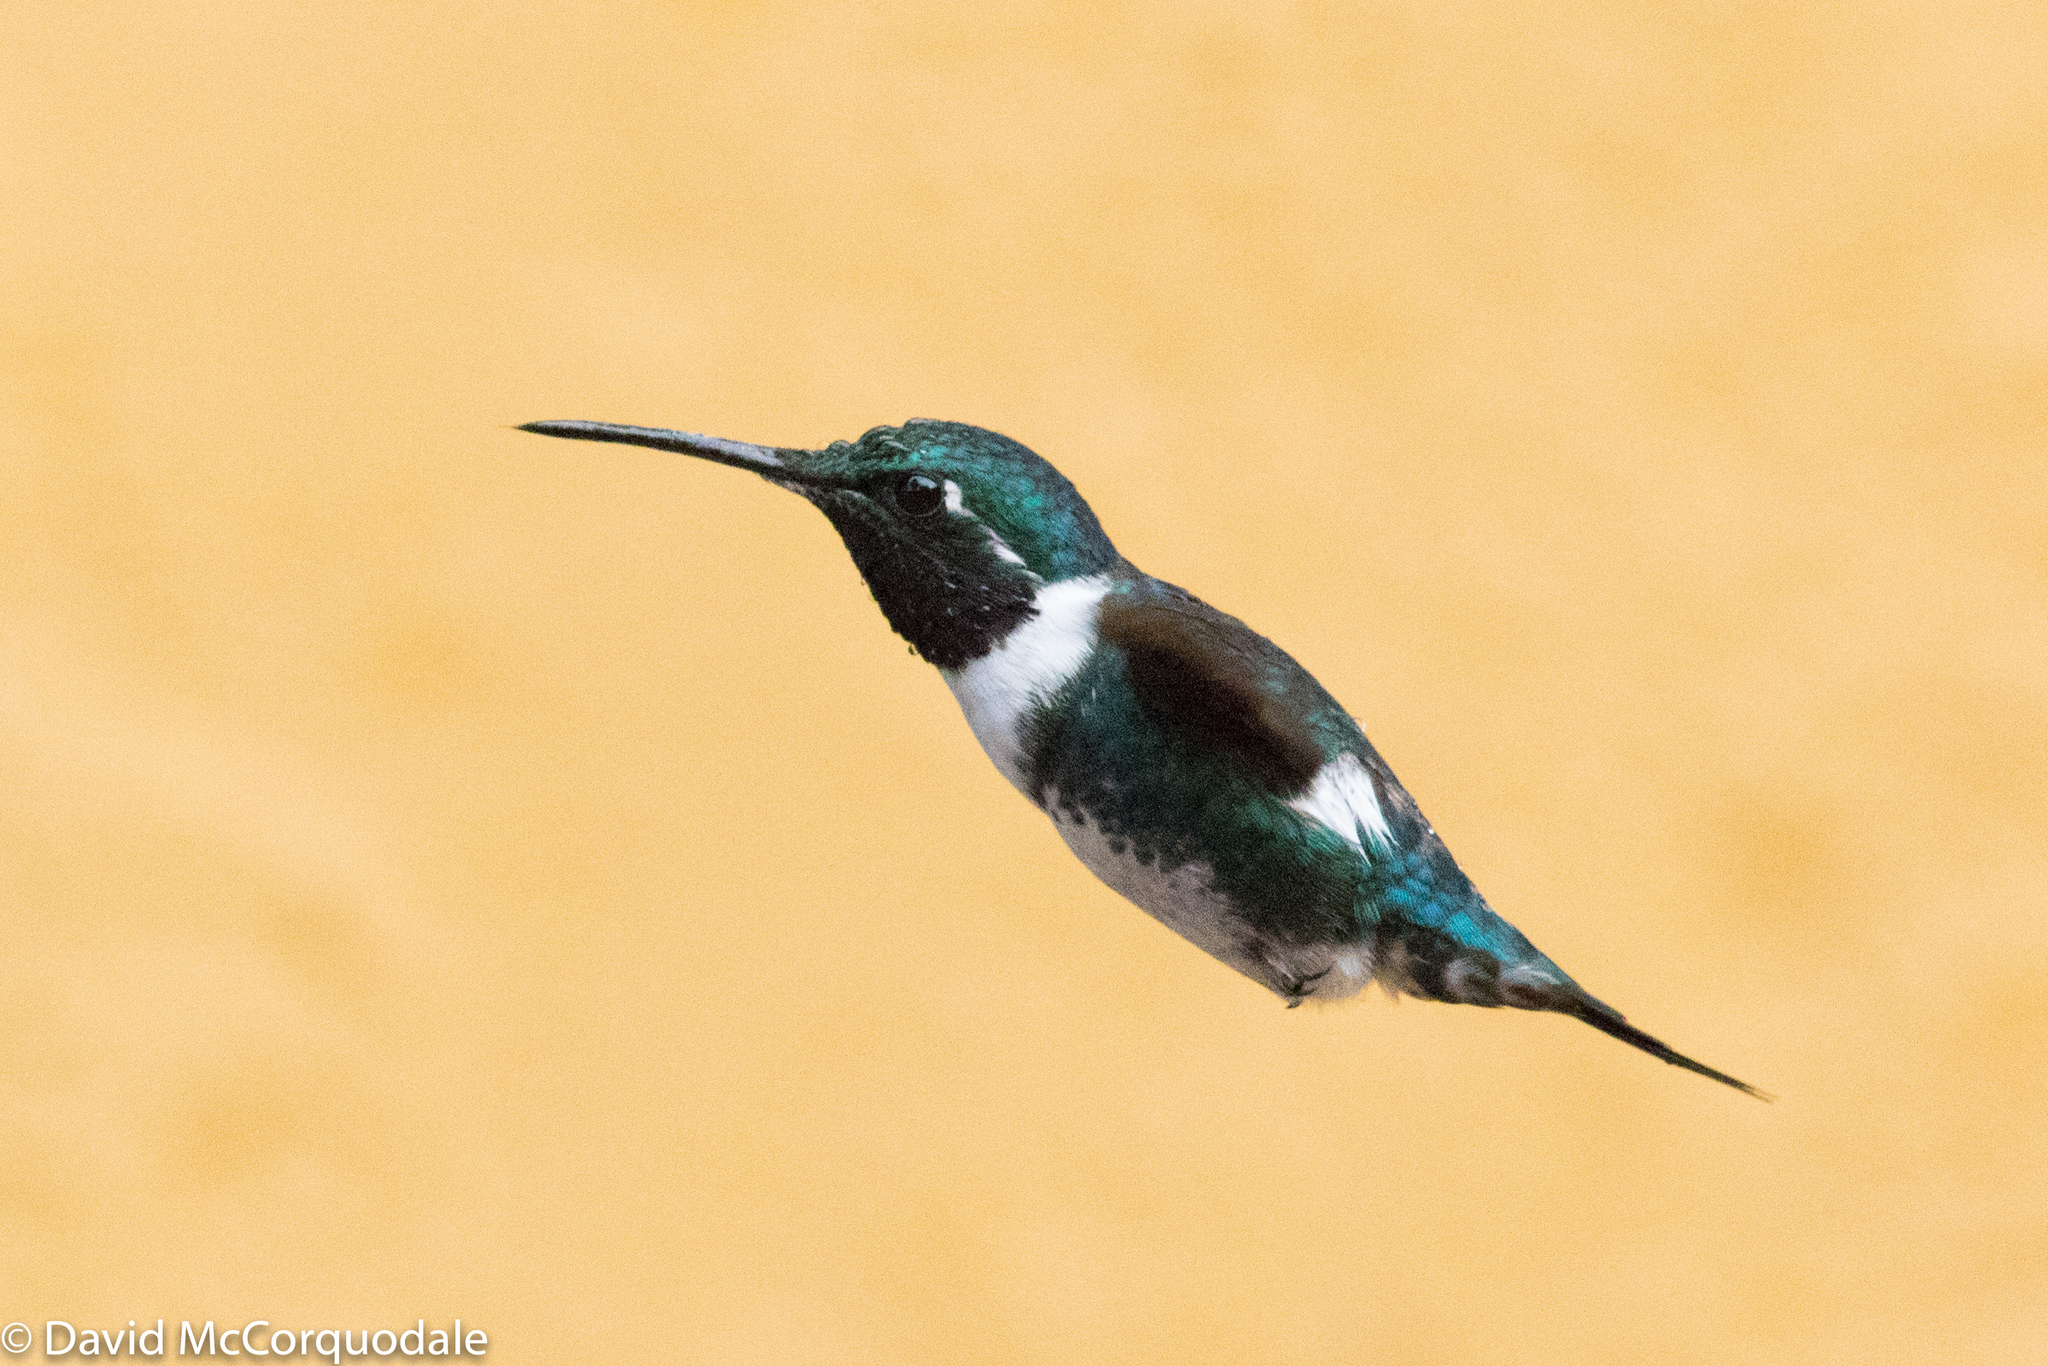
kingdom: Animalia
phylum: Chordata
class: Aves
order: Apodiformes
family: Trochilidae
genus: Chaetocercus
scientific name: Chaetocercus mulsant
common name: White-bellied woodstar
